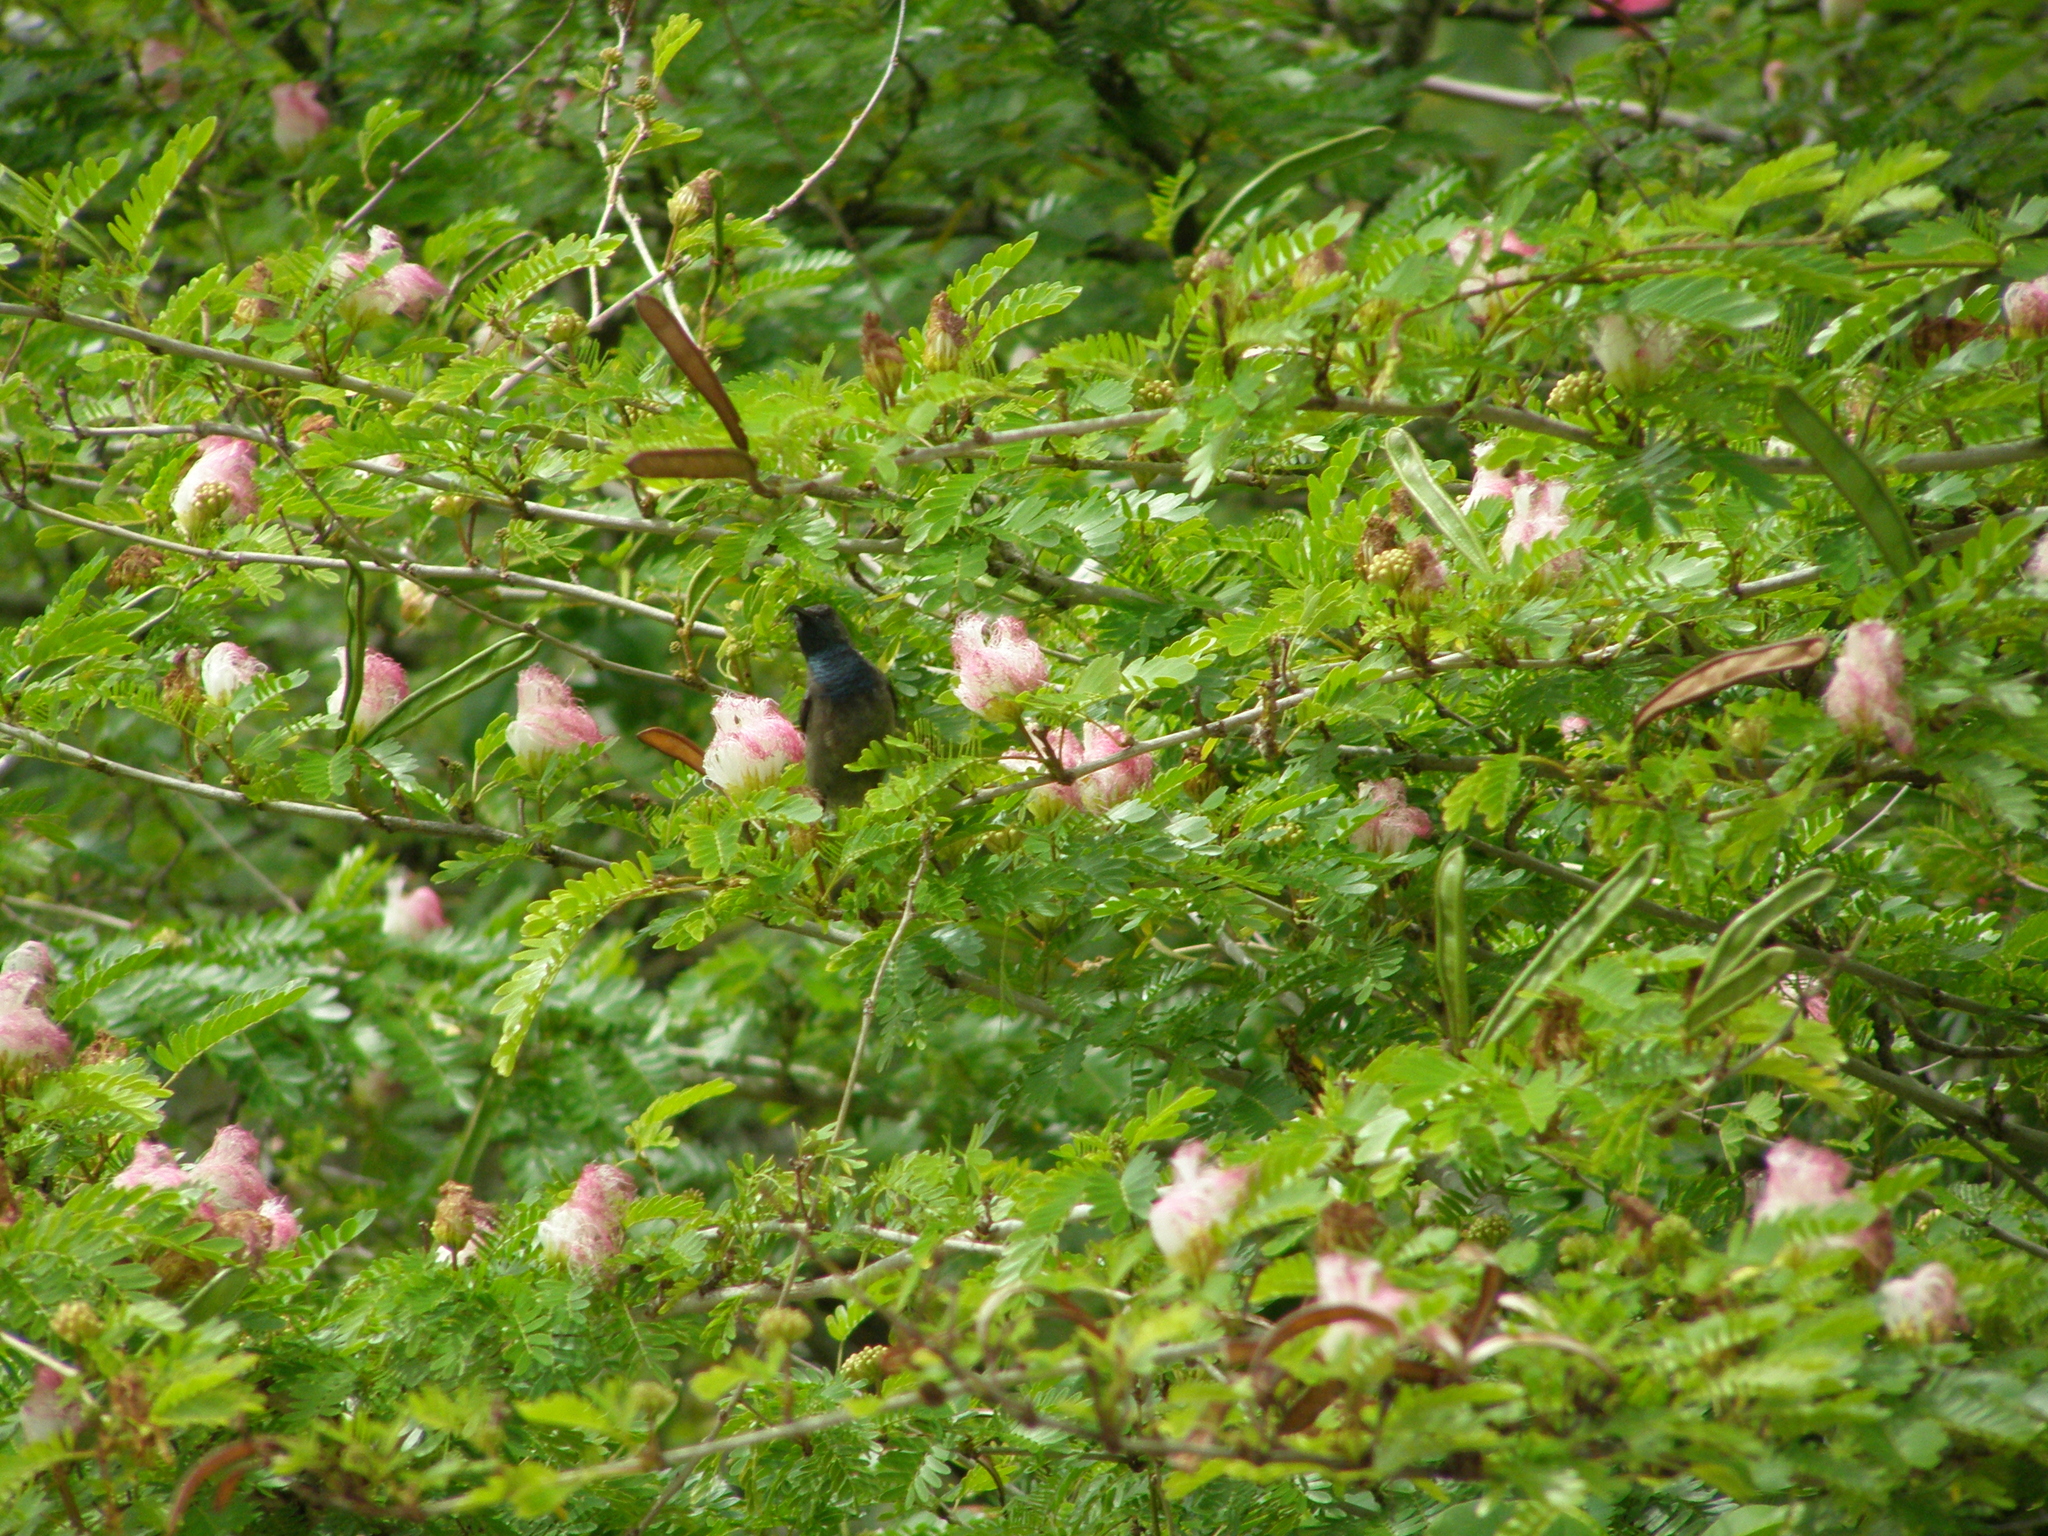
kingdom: Animalia
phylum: Chordata
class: Aves
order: Passeriformes
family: Nectariniidae
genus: Cinnyris
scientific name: Cinnyris dussumieri
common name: Seychelles sunbird
